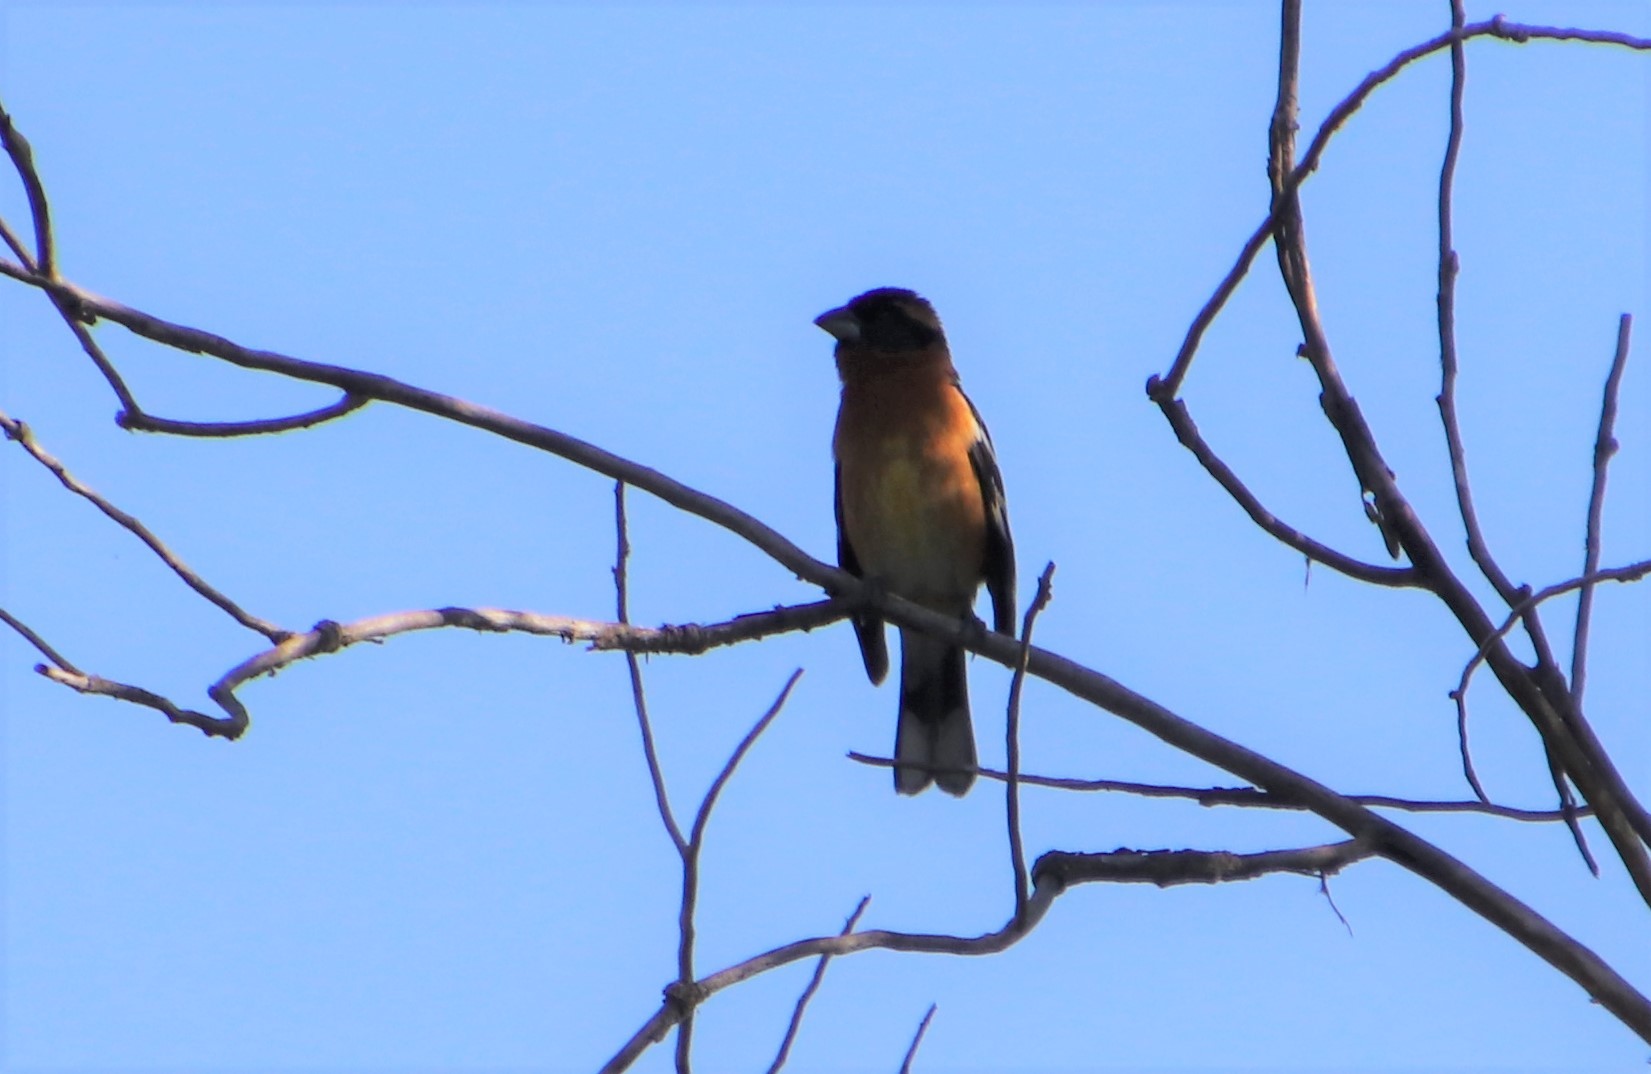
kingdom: Animalia
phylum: Chordata
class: Aves
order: Passeriformes
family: Cardinalidae
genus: Pheucticus
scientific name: Pheucticus melanocephalus
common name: Black-headed grosbeak
